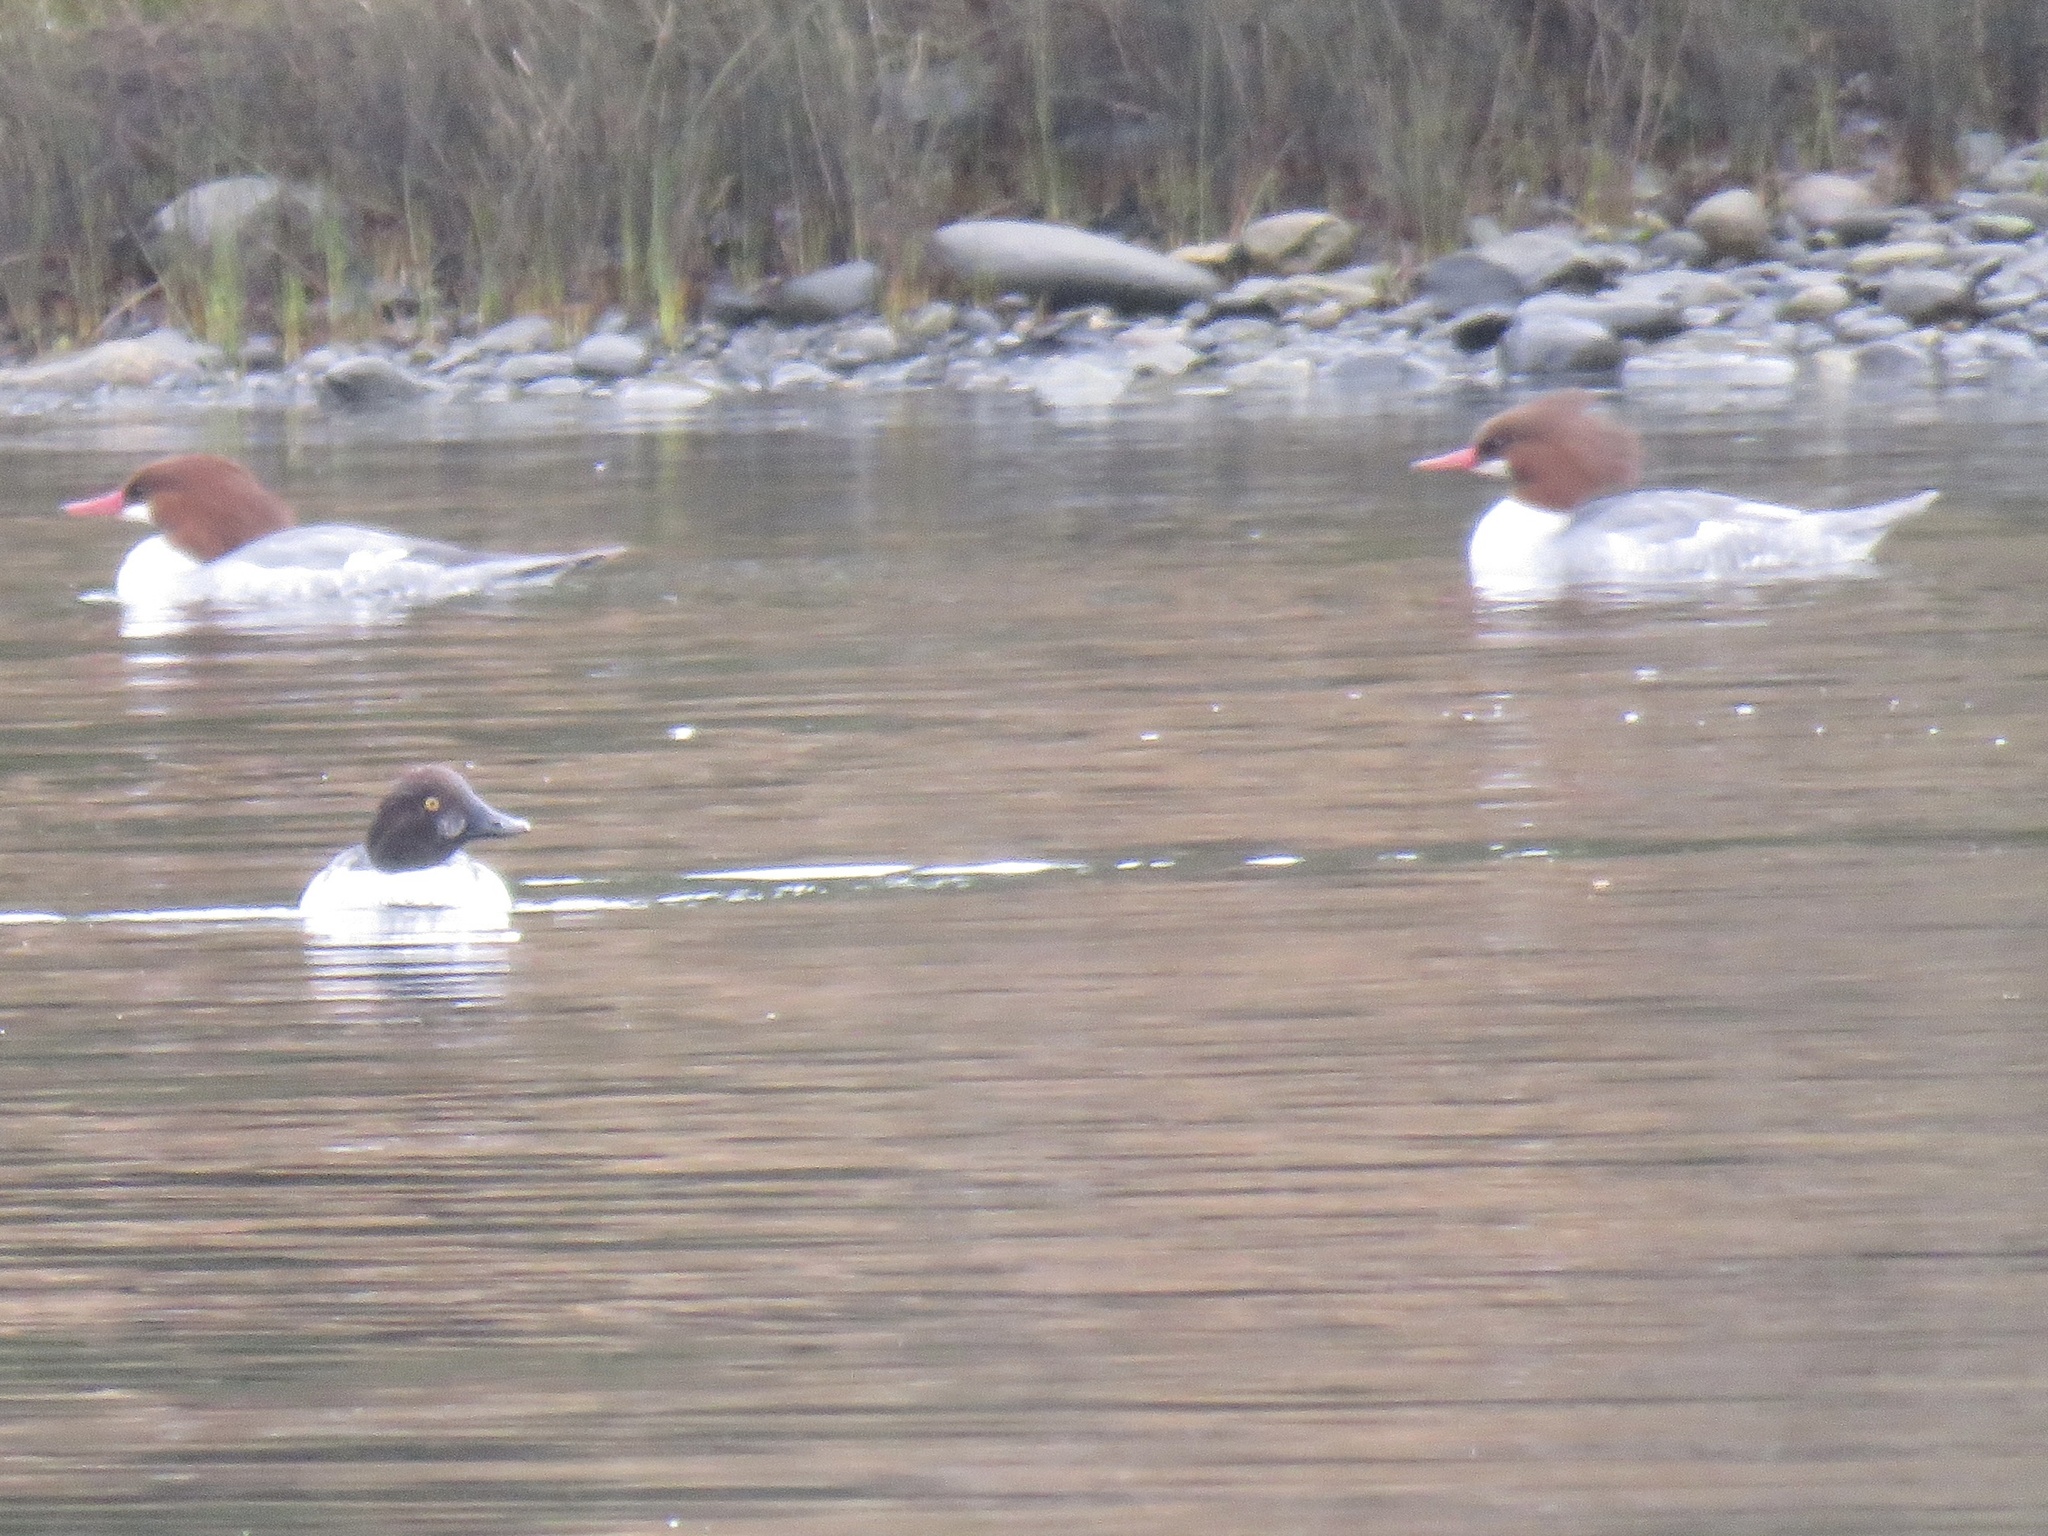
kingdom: Animalia
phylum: Chordata
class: Aves
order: Anseriformes
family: Anatidae
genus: Bucephala
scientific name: Bucephala clangula
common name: Common goldeneye
